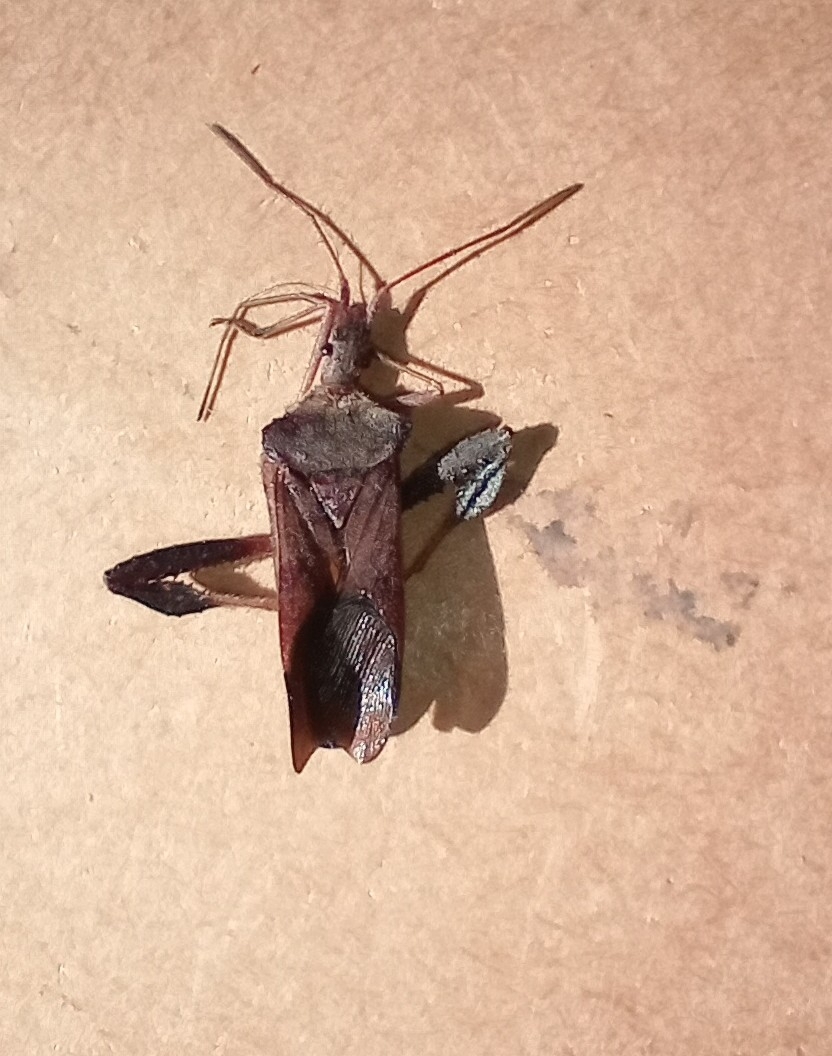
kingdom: Animalia
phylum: Arthropoda
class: Insecta
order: Hemiptera
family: Coreidae
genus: Leptoglossus
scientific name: Leptoglossus fulvicornis
